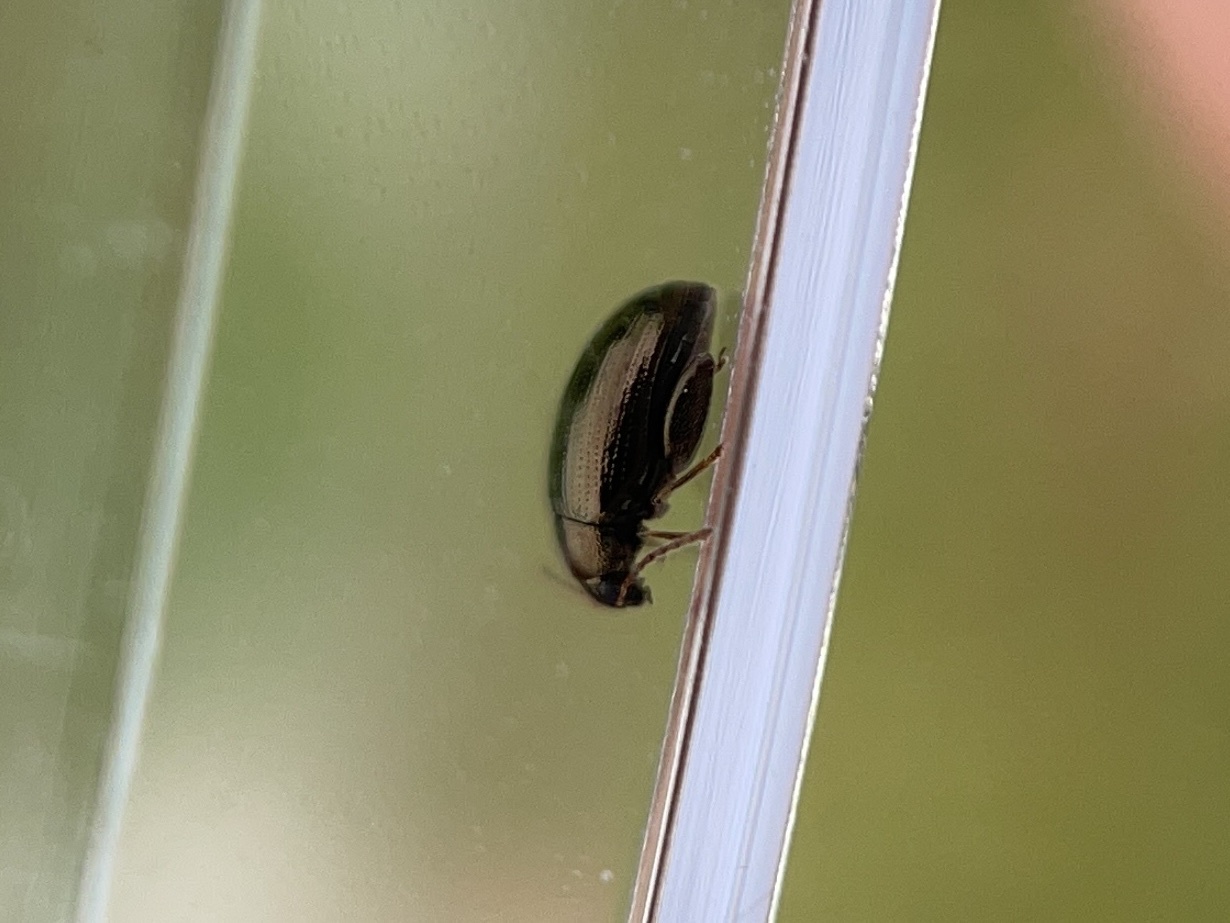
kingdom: Animalia
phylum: Arthropoda
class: Insecta
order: Coleoptera
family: Chrysomelidae
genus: Dibolia
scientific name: Dibolia borealis
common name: Northern plantain flea beetle
